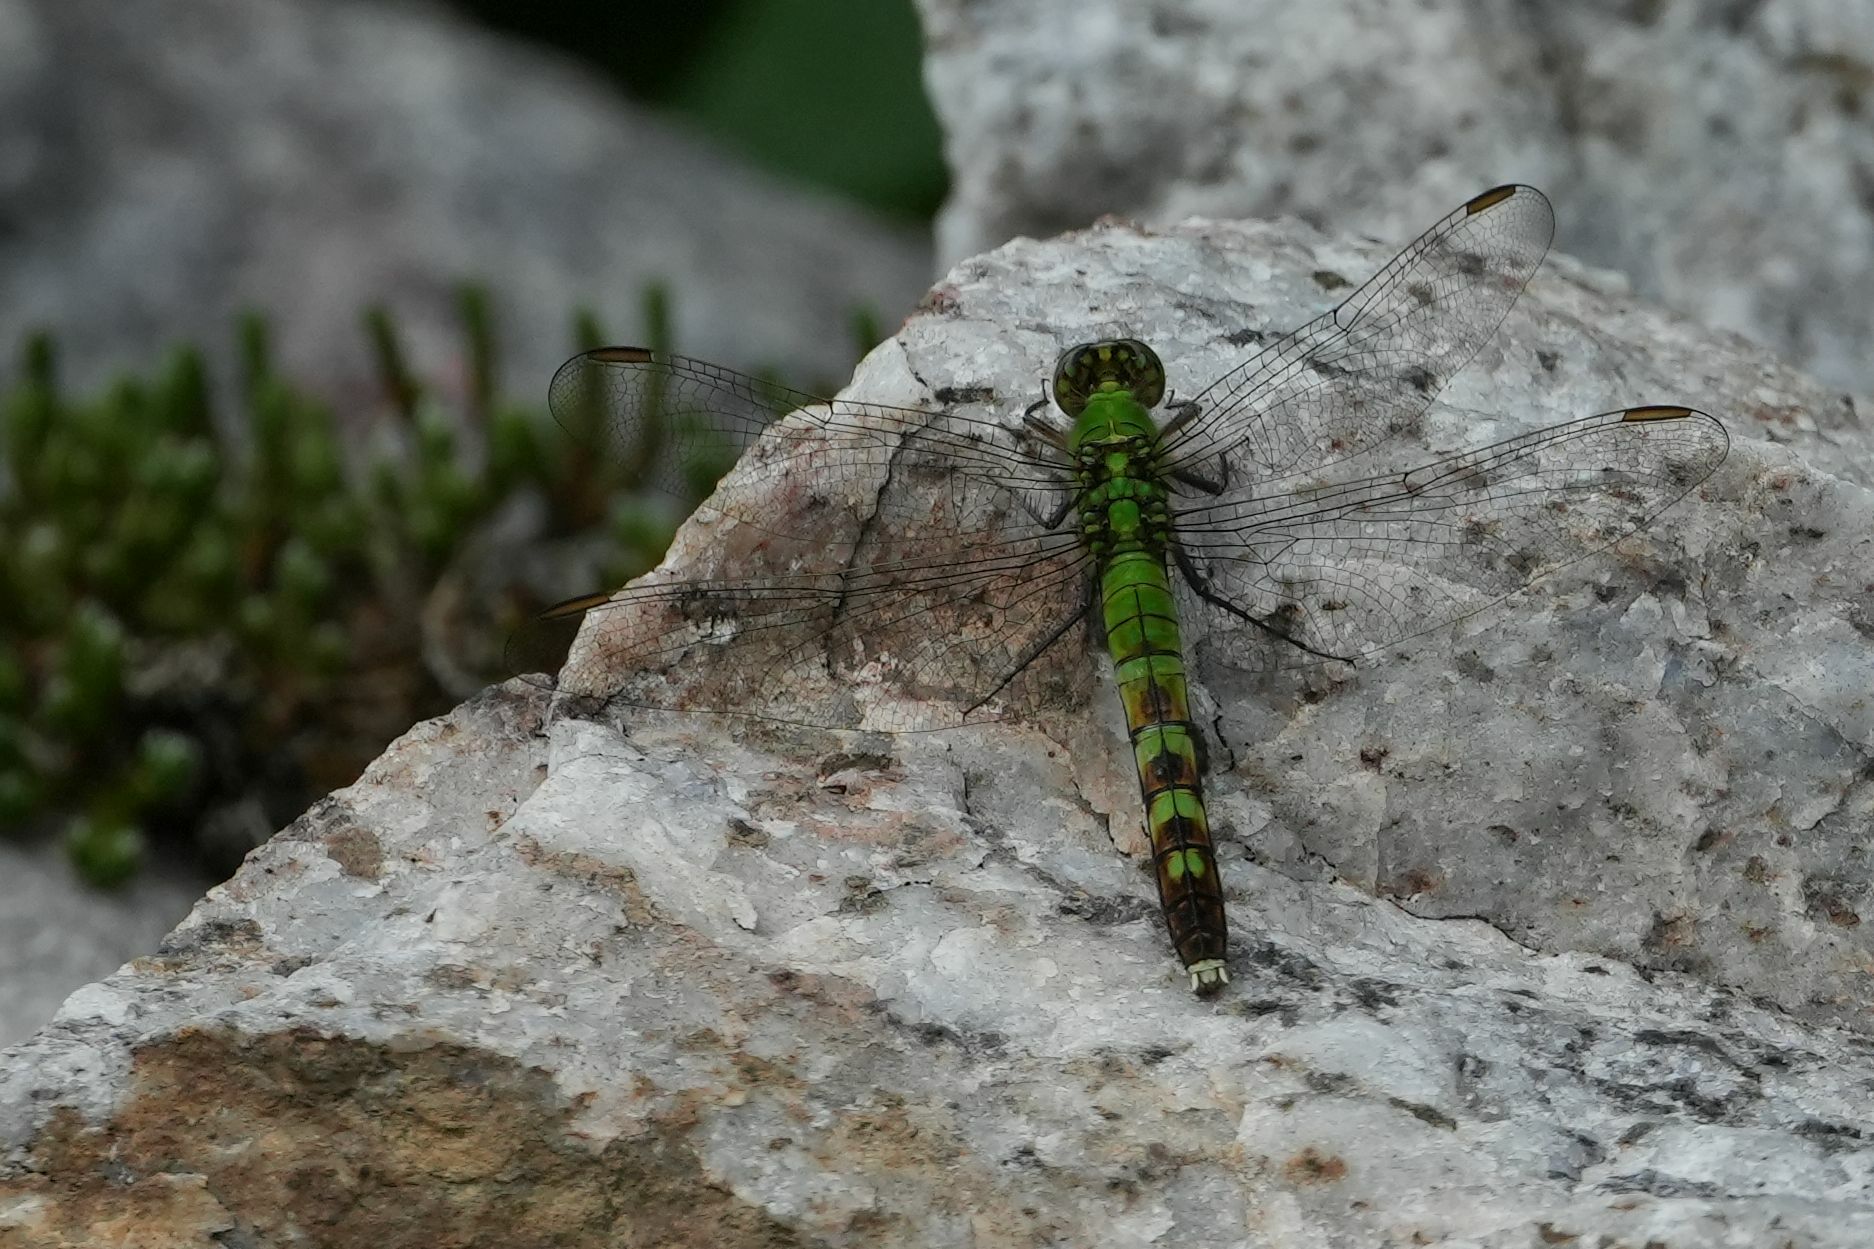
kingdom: Animalia
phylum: Arthropoda
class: Insecta
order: Odonata
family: Libellulidae
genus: Erythemis
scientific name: Erythemis simplicicollis
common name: Eastern pondhawk
